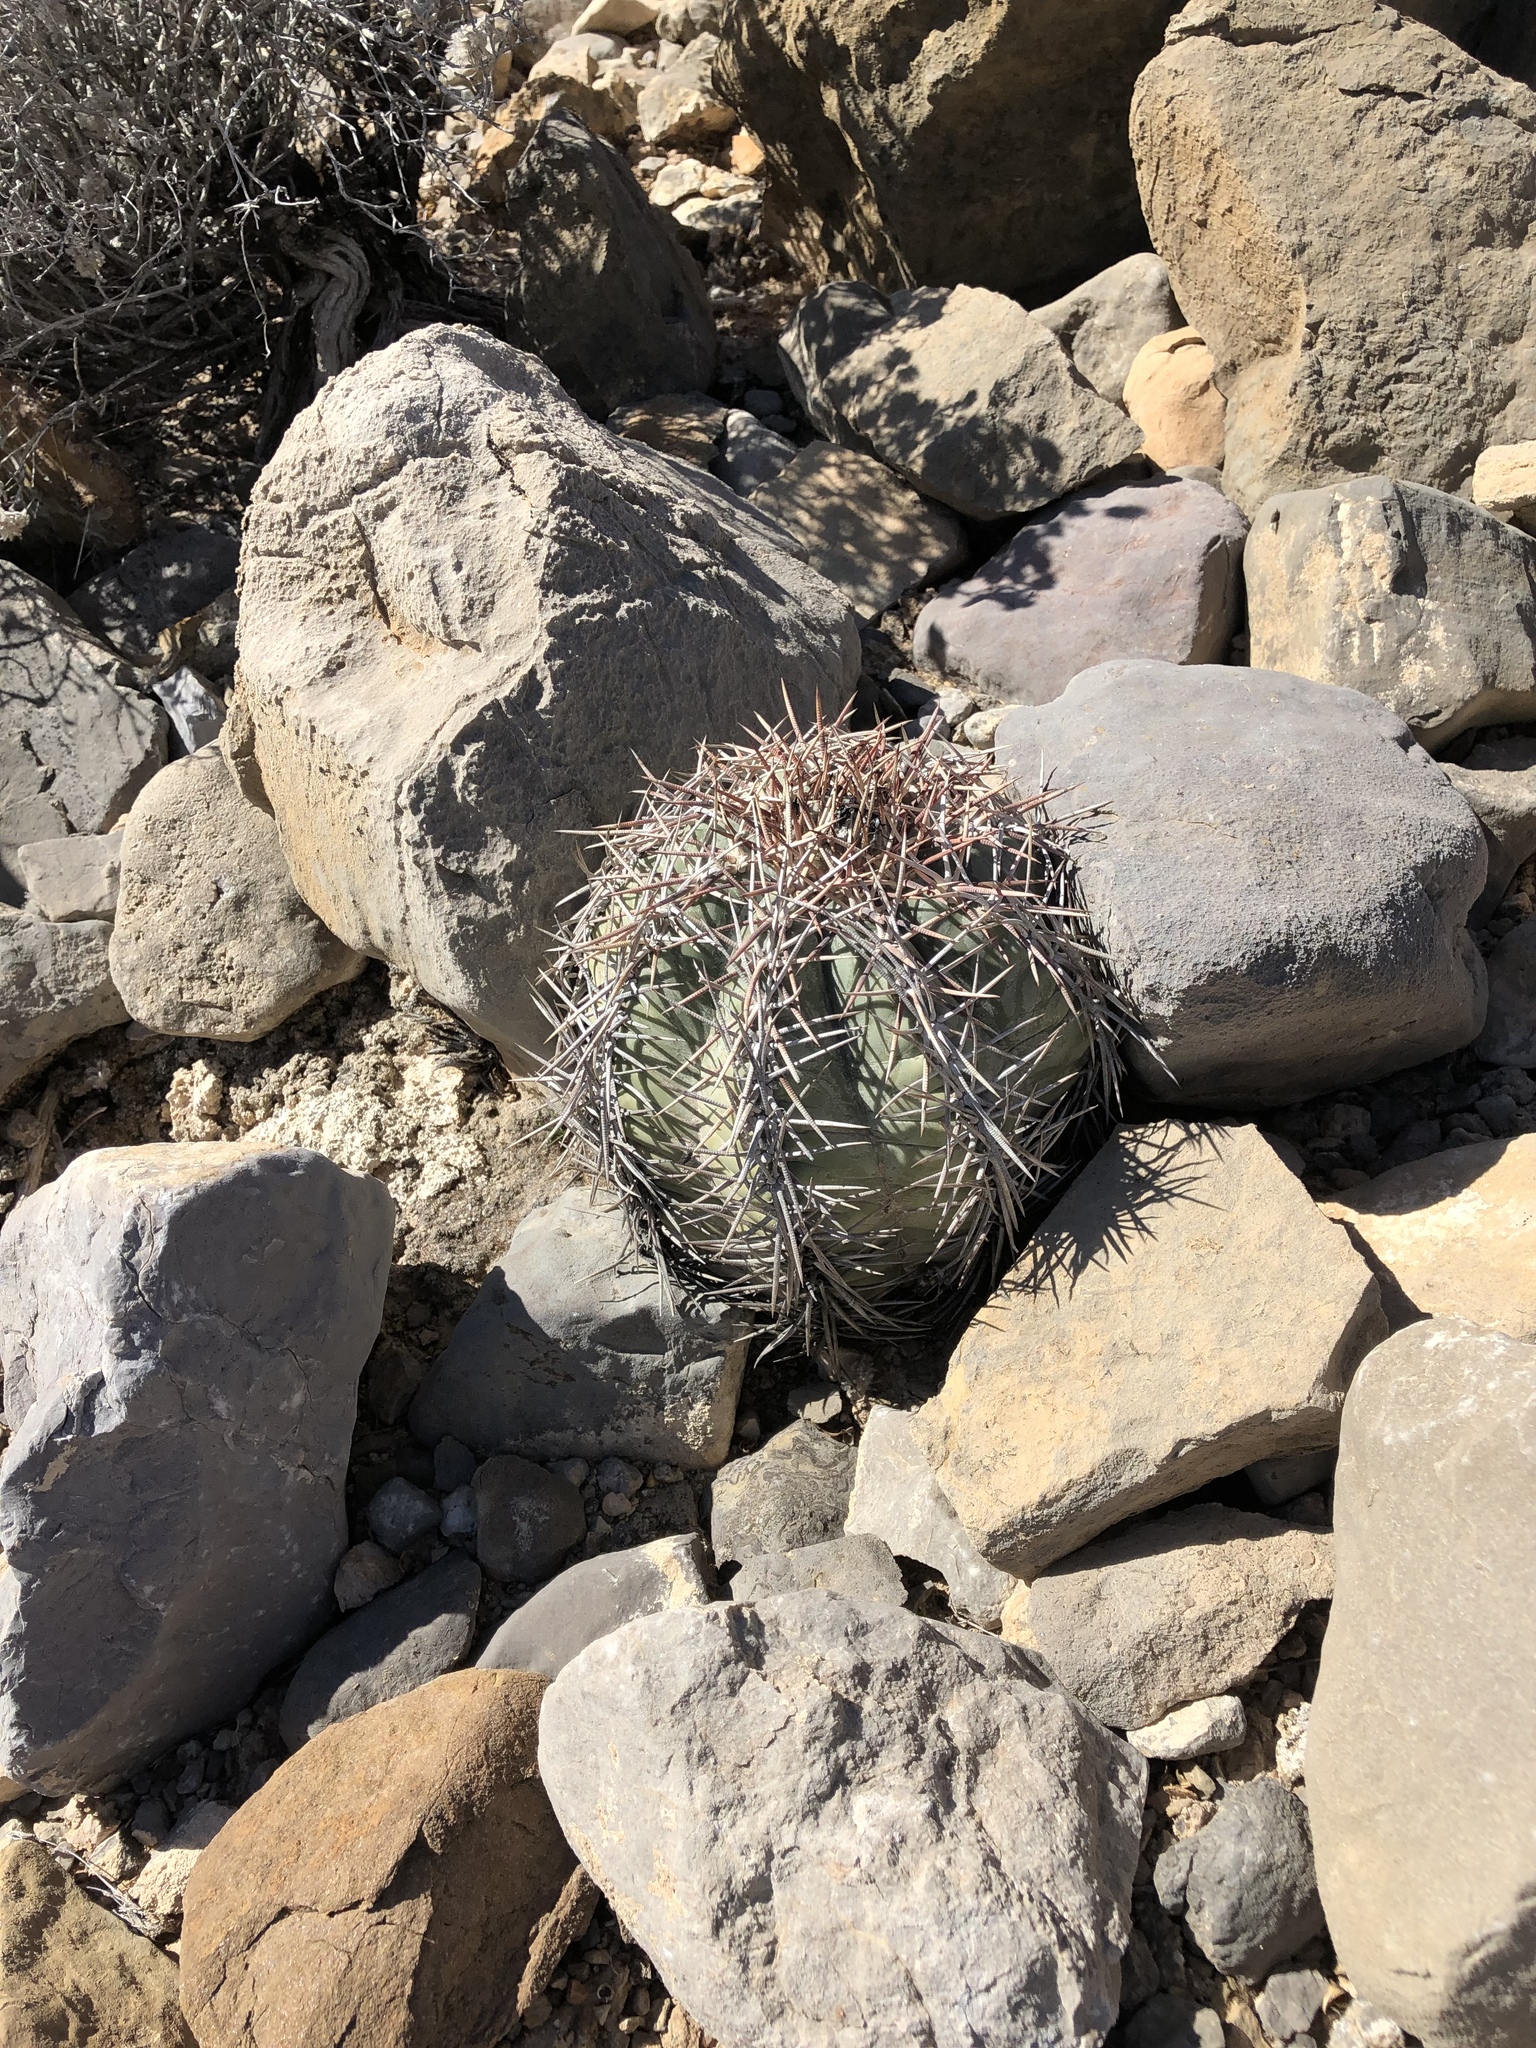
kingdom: Plantae
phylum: Tracheophyta
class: Magnoliopsida
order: Caryophyllales
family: Cactaceae
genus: Echinocactus
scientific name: Echinocactus horizonthalonius
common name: Devilshead
